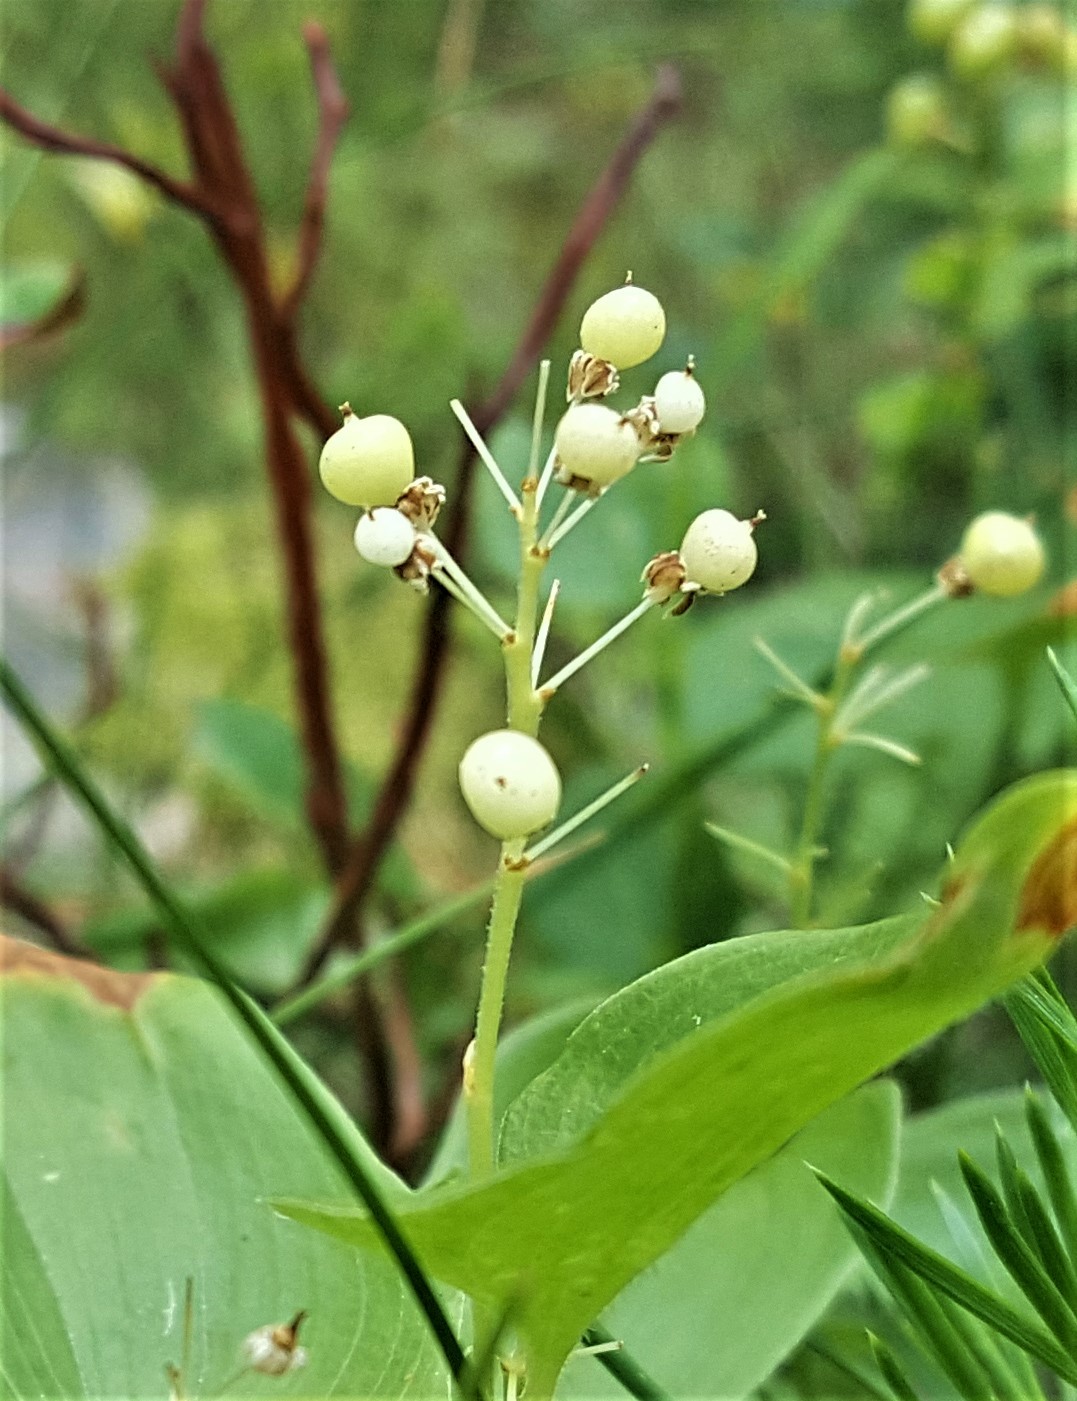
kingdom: Plantae
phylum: Tracheophyta
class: Liliopsida
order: Asparagales
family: Asparagaceae
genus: Maianthemum
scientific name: Maianthemum bifolium
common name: May lily
